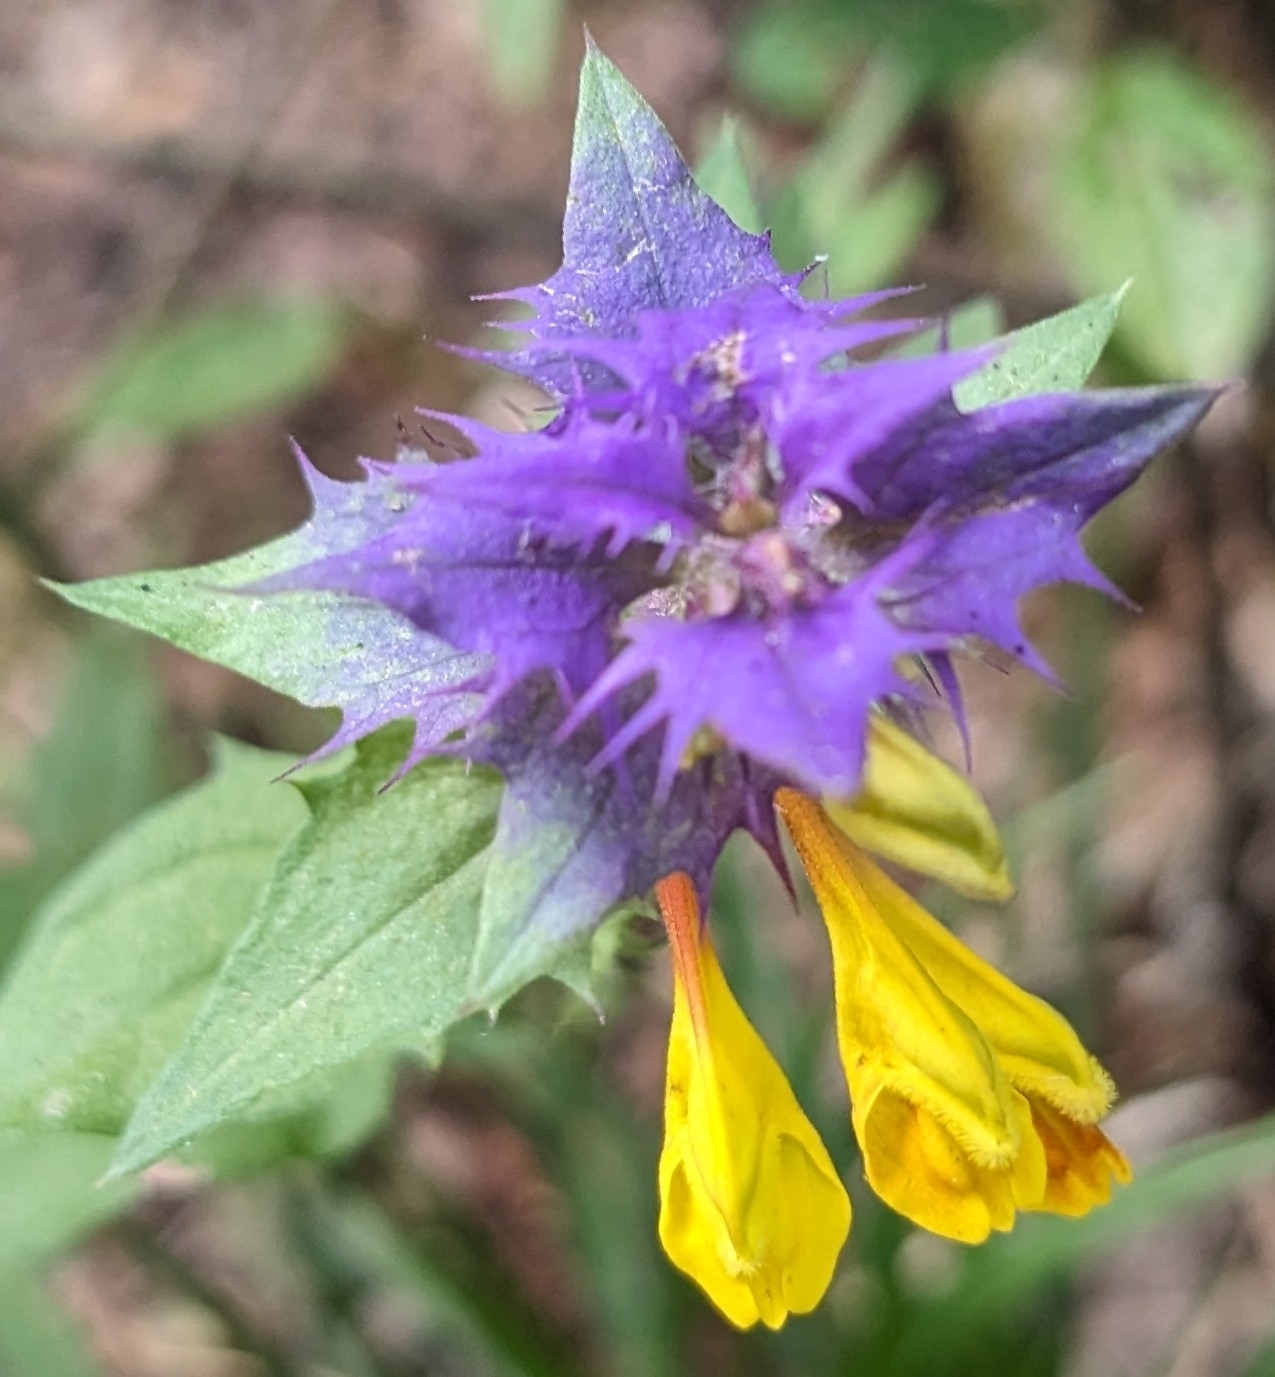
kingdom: Plantae
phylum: Tracheophyta
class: Magnoliopsida
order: Lamiales
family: Orobanchaceae
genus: Melampyrum
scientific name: Melampyrum nemorosum
